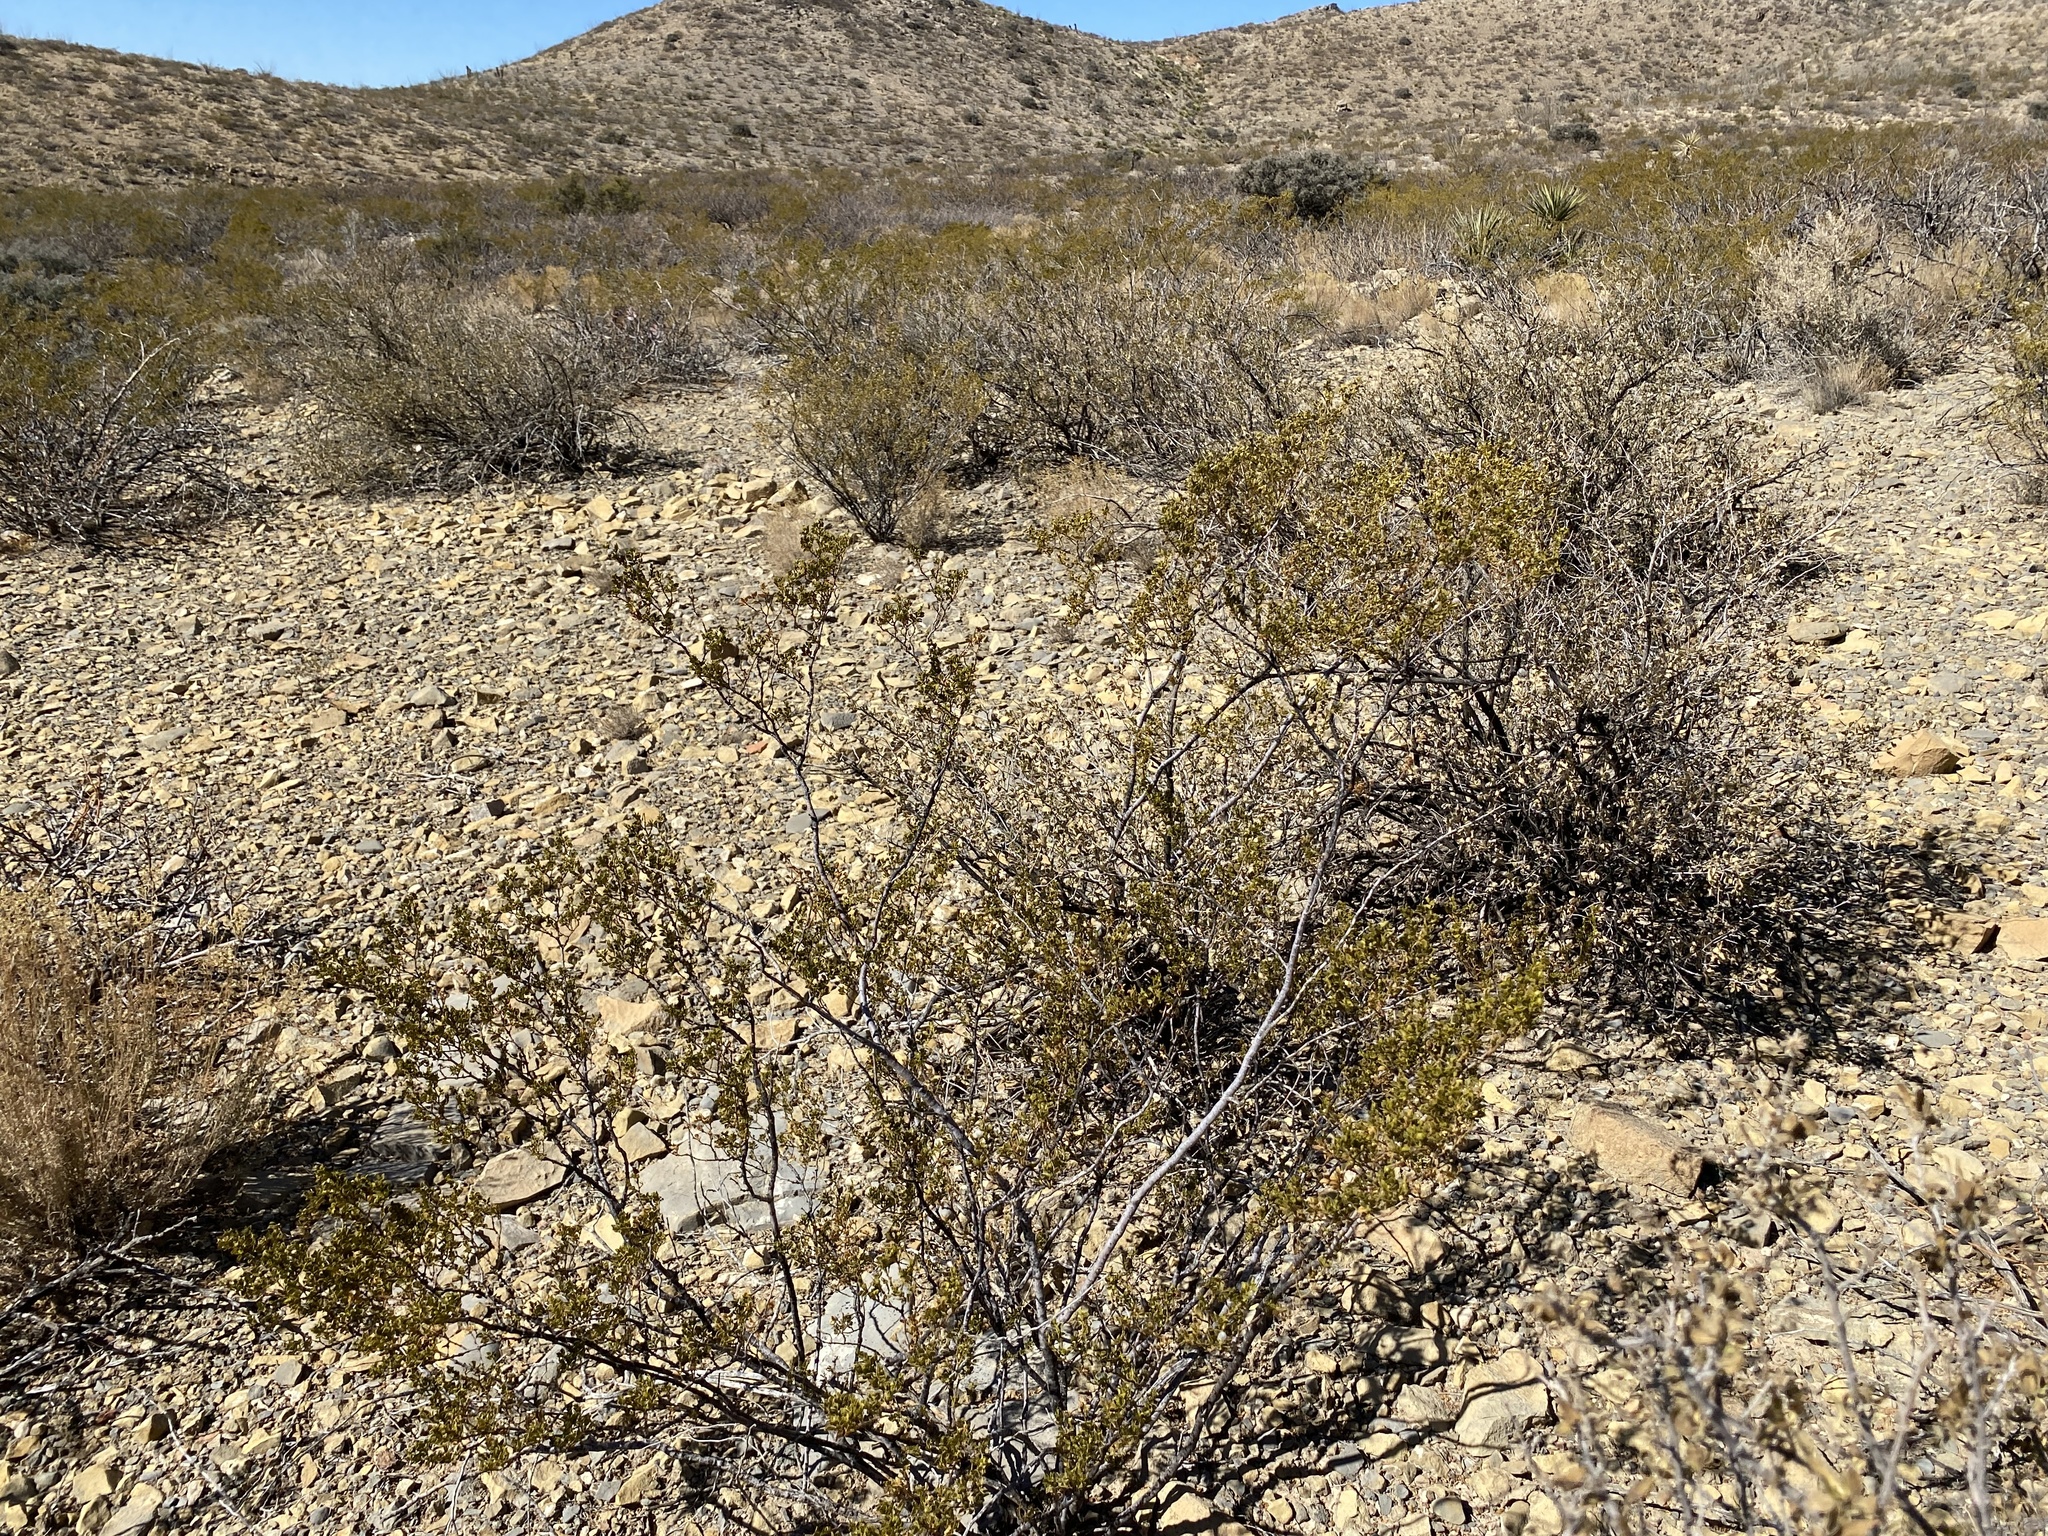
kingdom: Plantae
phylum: Tracheophyta
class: Magnoliopsida
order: Zygophyllales
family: Zygophyllaceae
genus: Larrea
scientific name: Larrea tridentata
